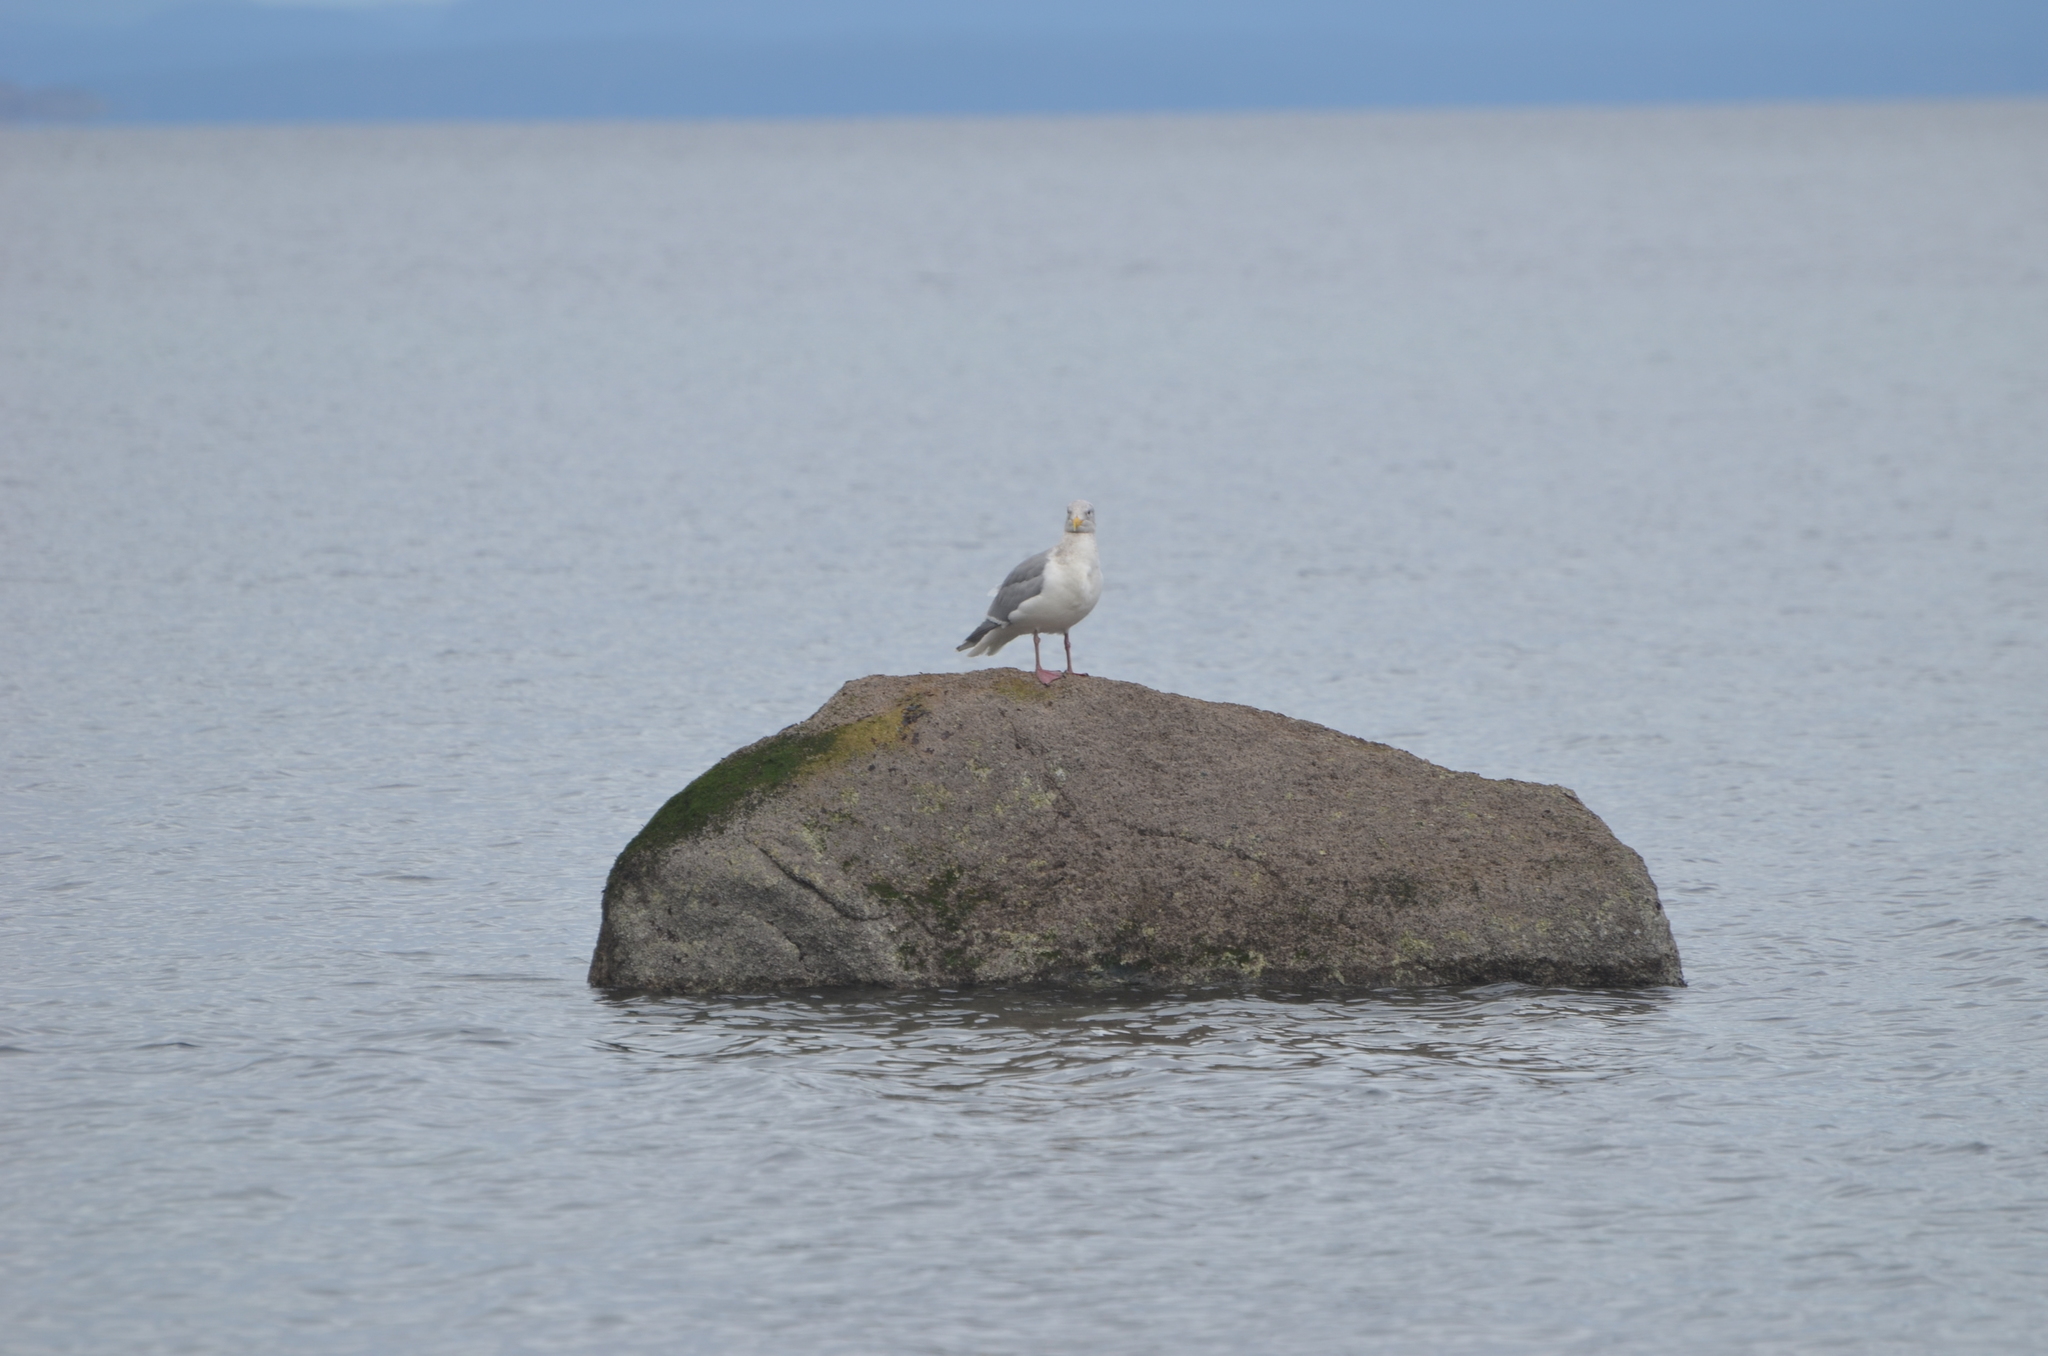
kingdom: Animalia
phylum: Chordata
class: Aves
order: Charadriiformes
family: Laridae
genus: Larus
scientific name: Larus glaucescens
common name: Glaucous-winged gull
